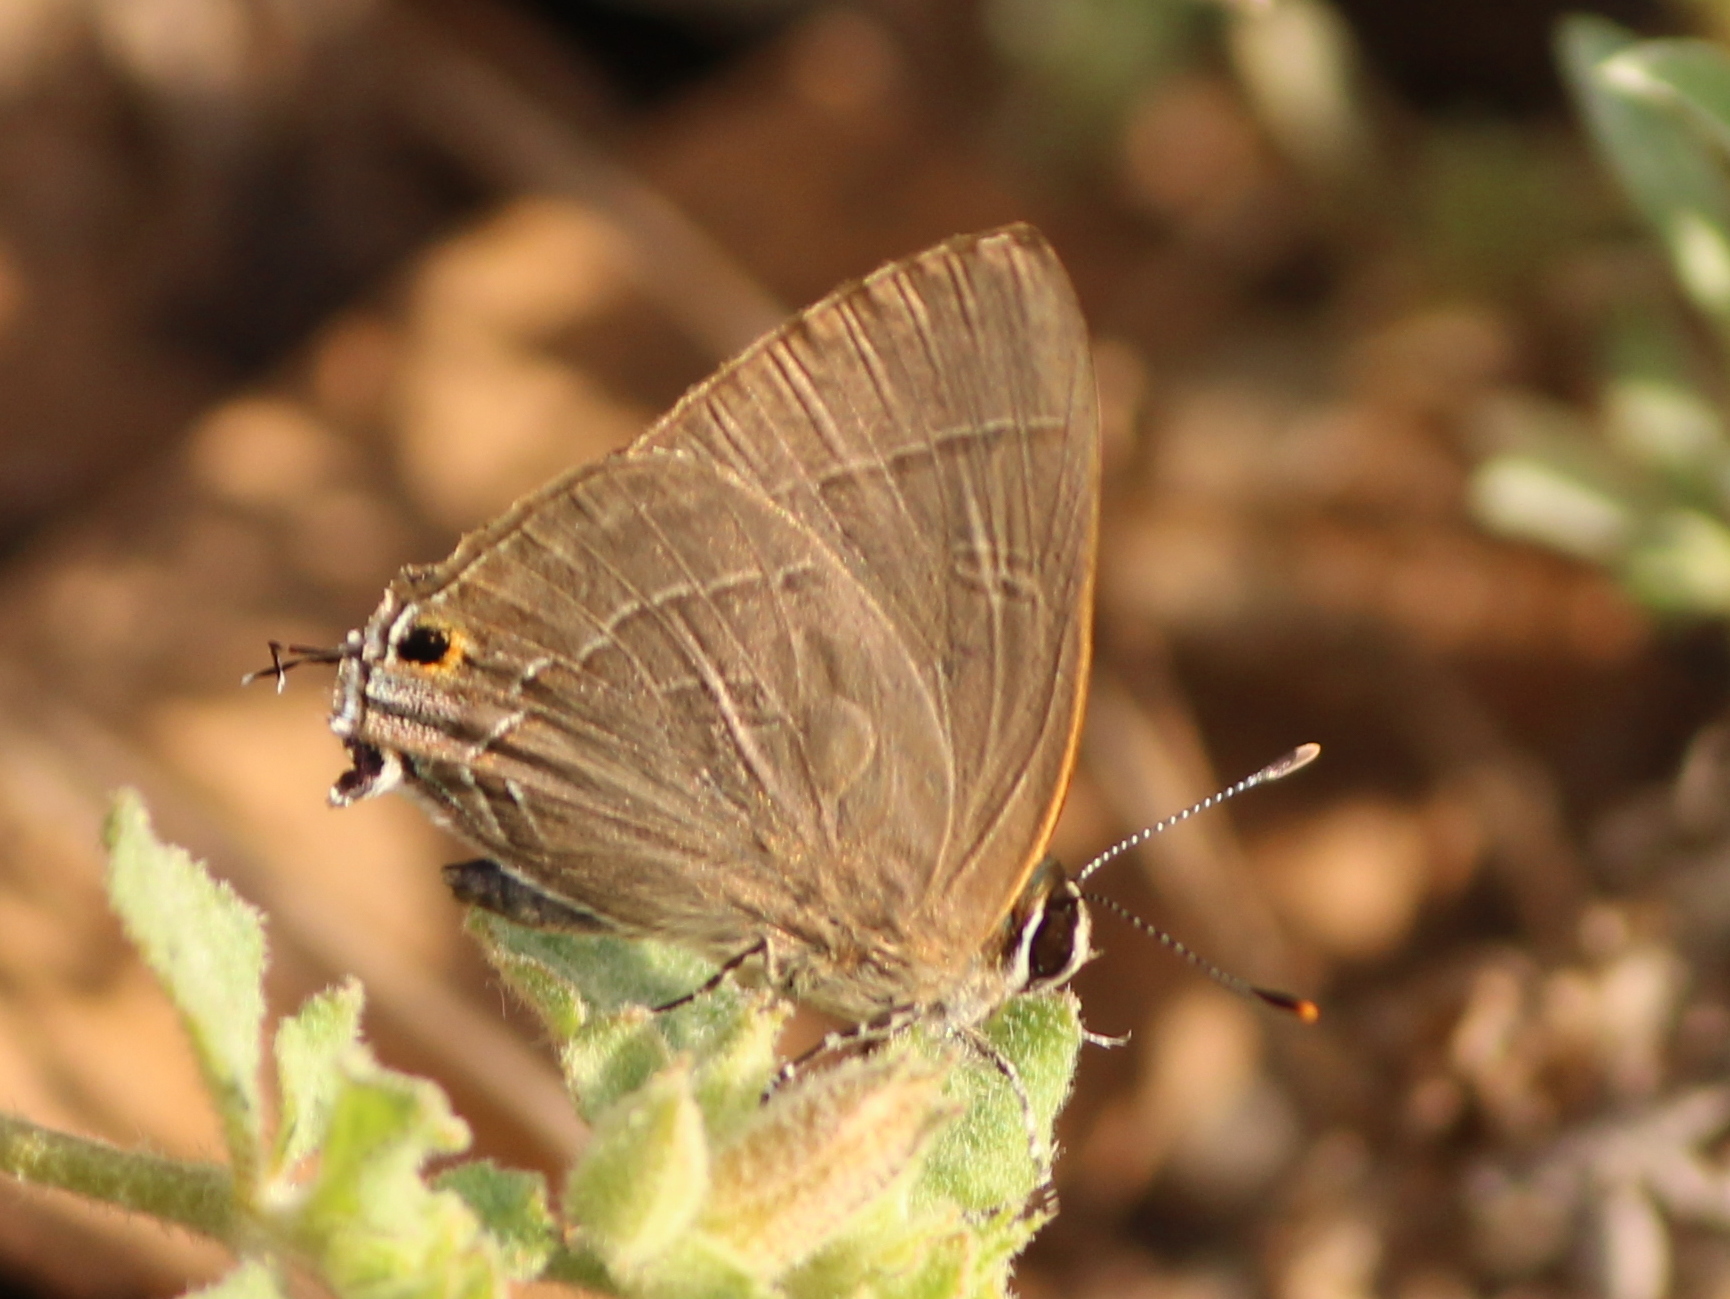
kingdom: Animalia
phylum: Arthropoda
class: Insecta
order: Lepidoptera
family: Lycaenidae
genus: Rapala
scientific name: Rapala manea
